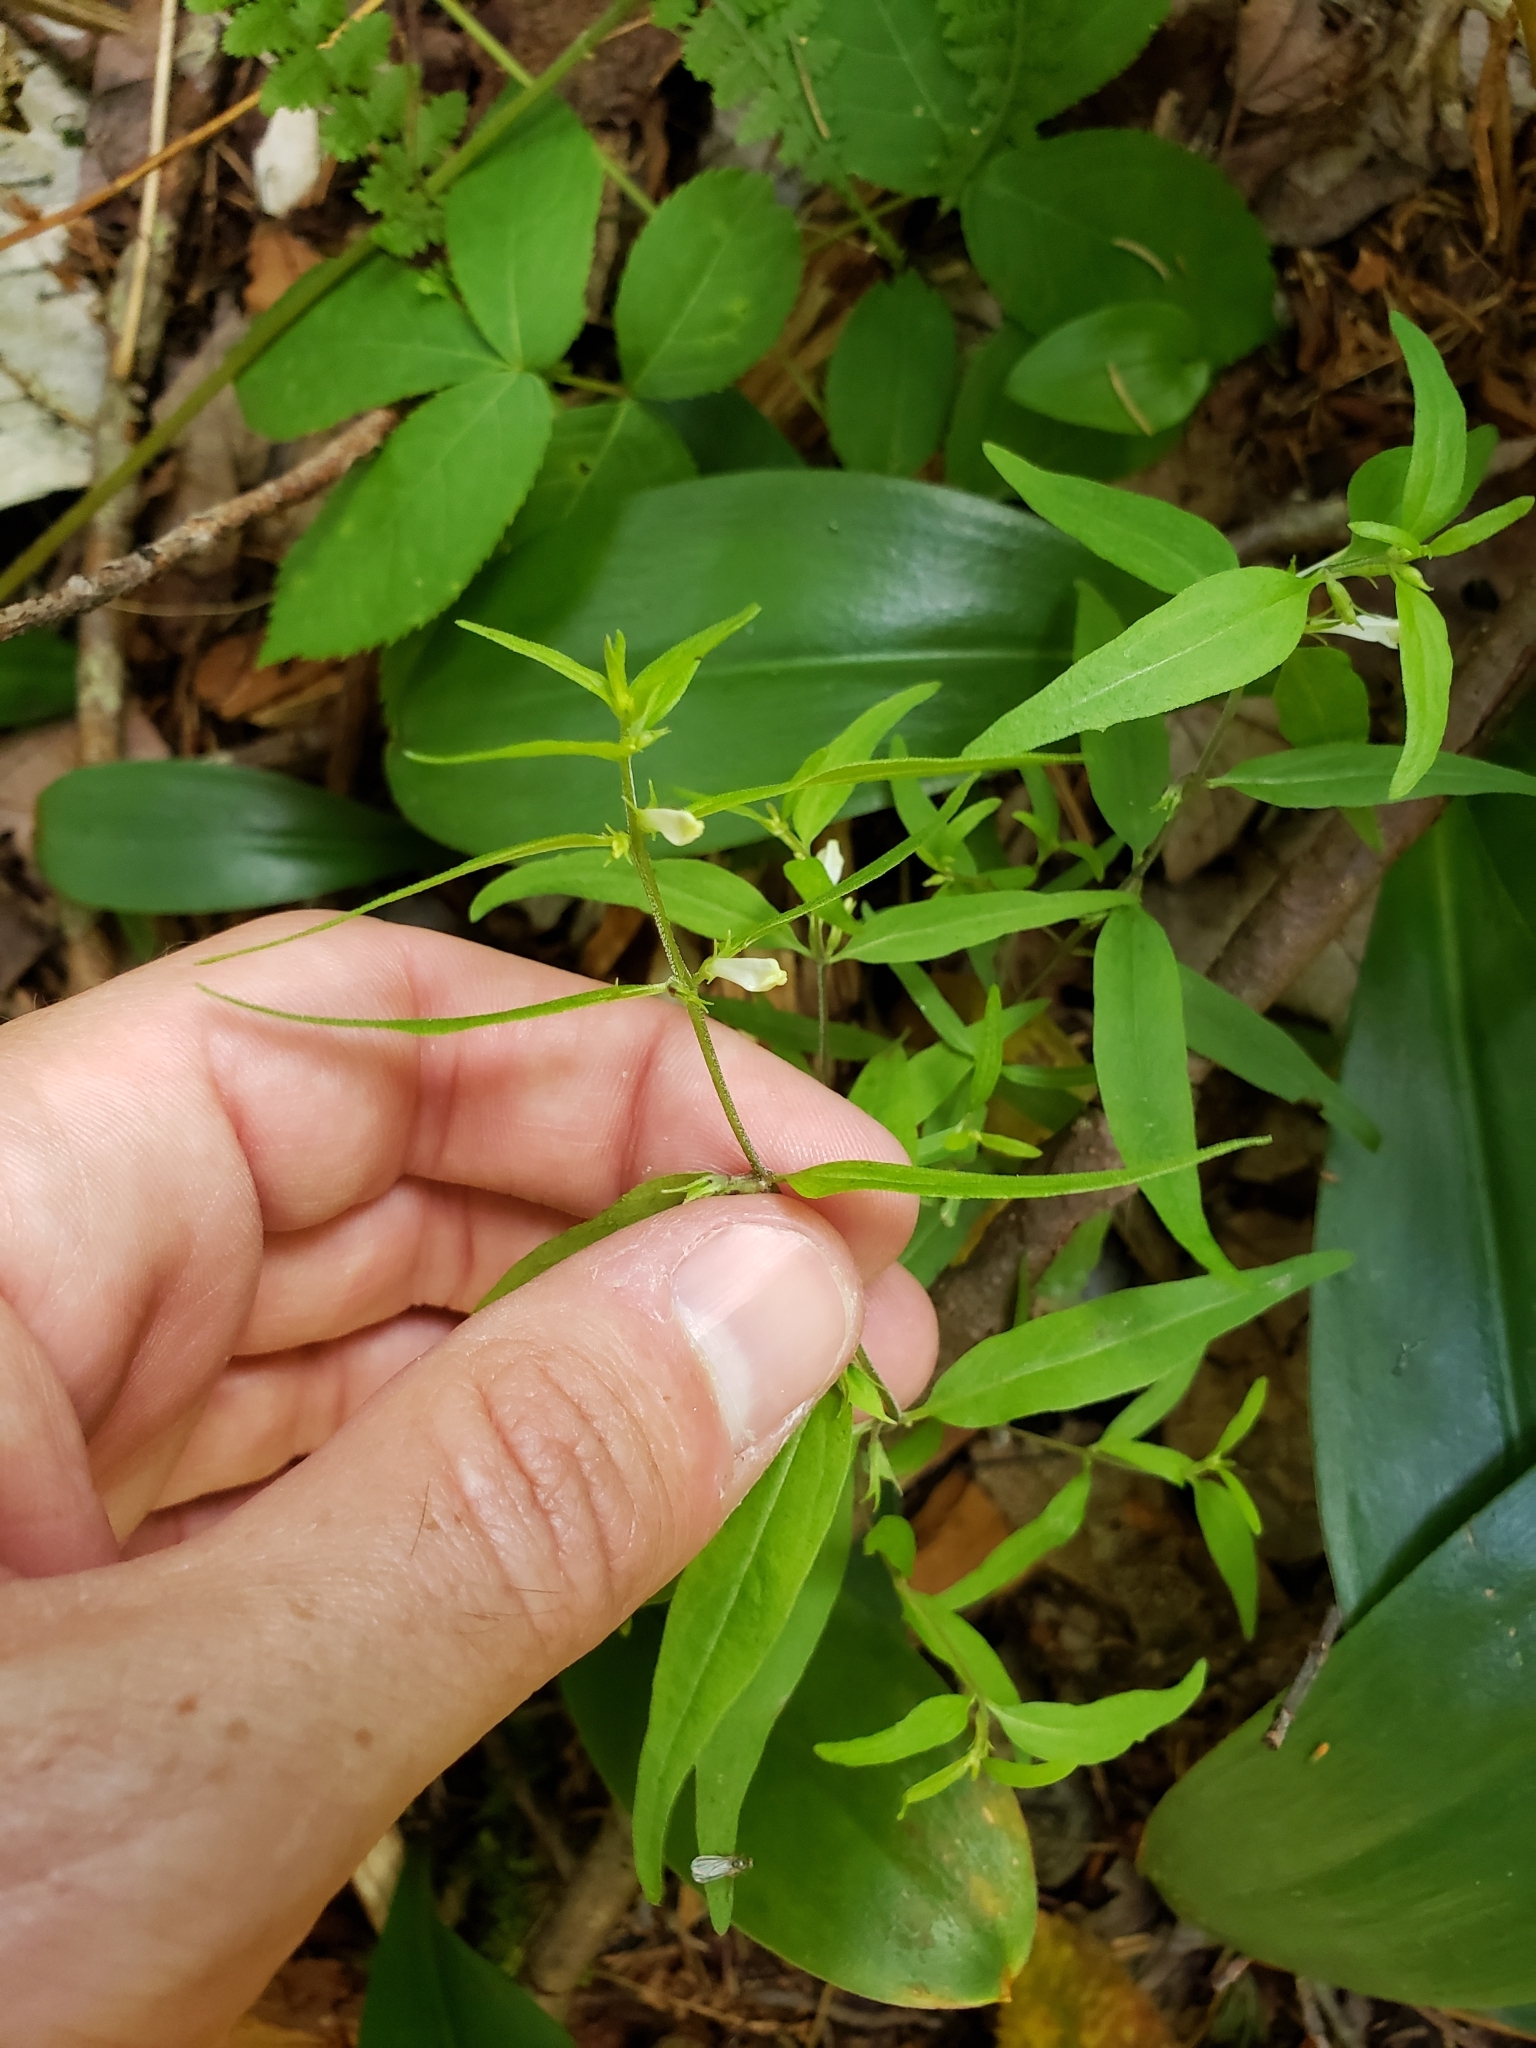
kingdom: Plantae
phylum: Tracheophyta
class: Magnoliopsida
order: Lamiales
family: Orobanchaceae
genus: Melampyrum
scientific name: Melampyrum lineare
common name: American cow-wheat
